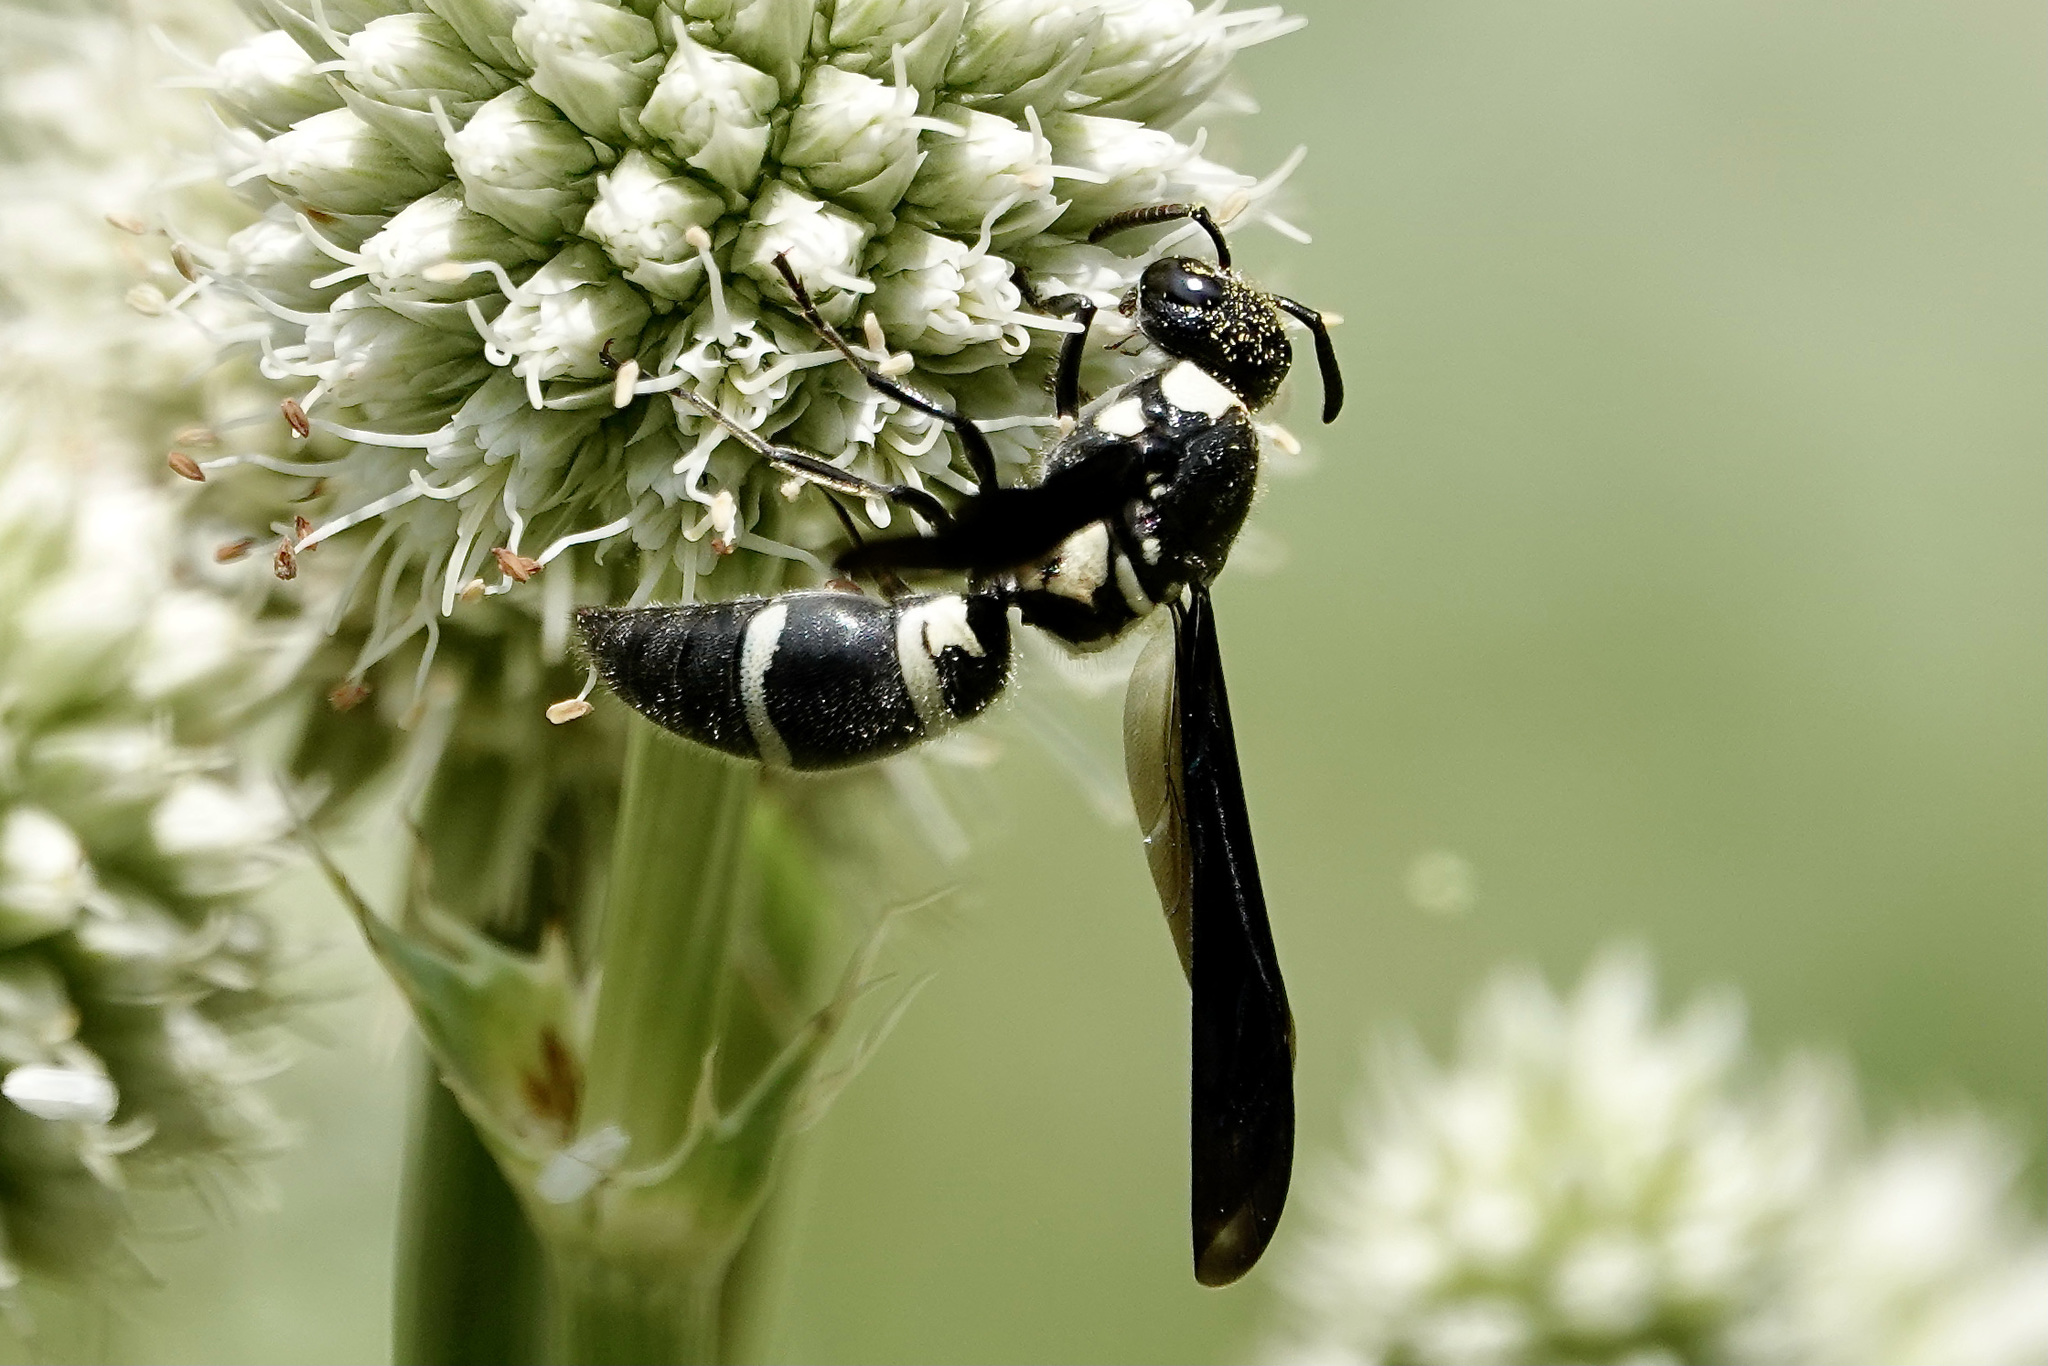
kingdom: Animalia
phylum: Arthropoda
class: Insecta
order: Hymenoptera
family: Eumenidae
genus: Pseudodynerus
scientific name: Pseudodynerus quadrisectus
